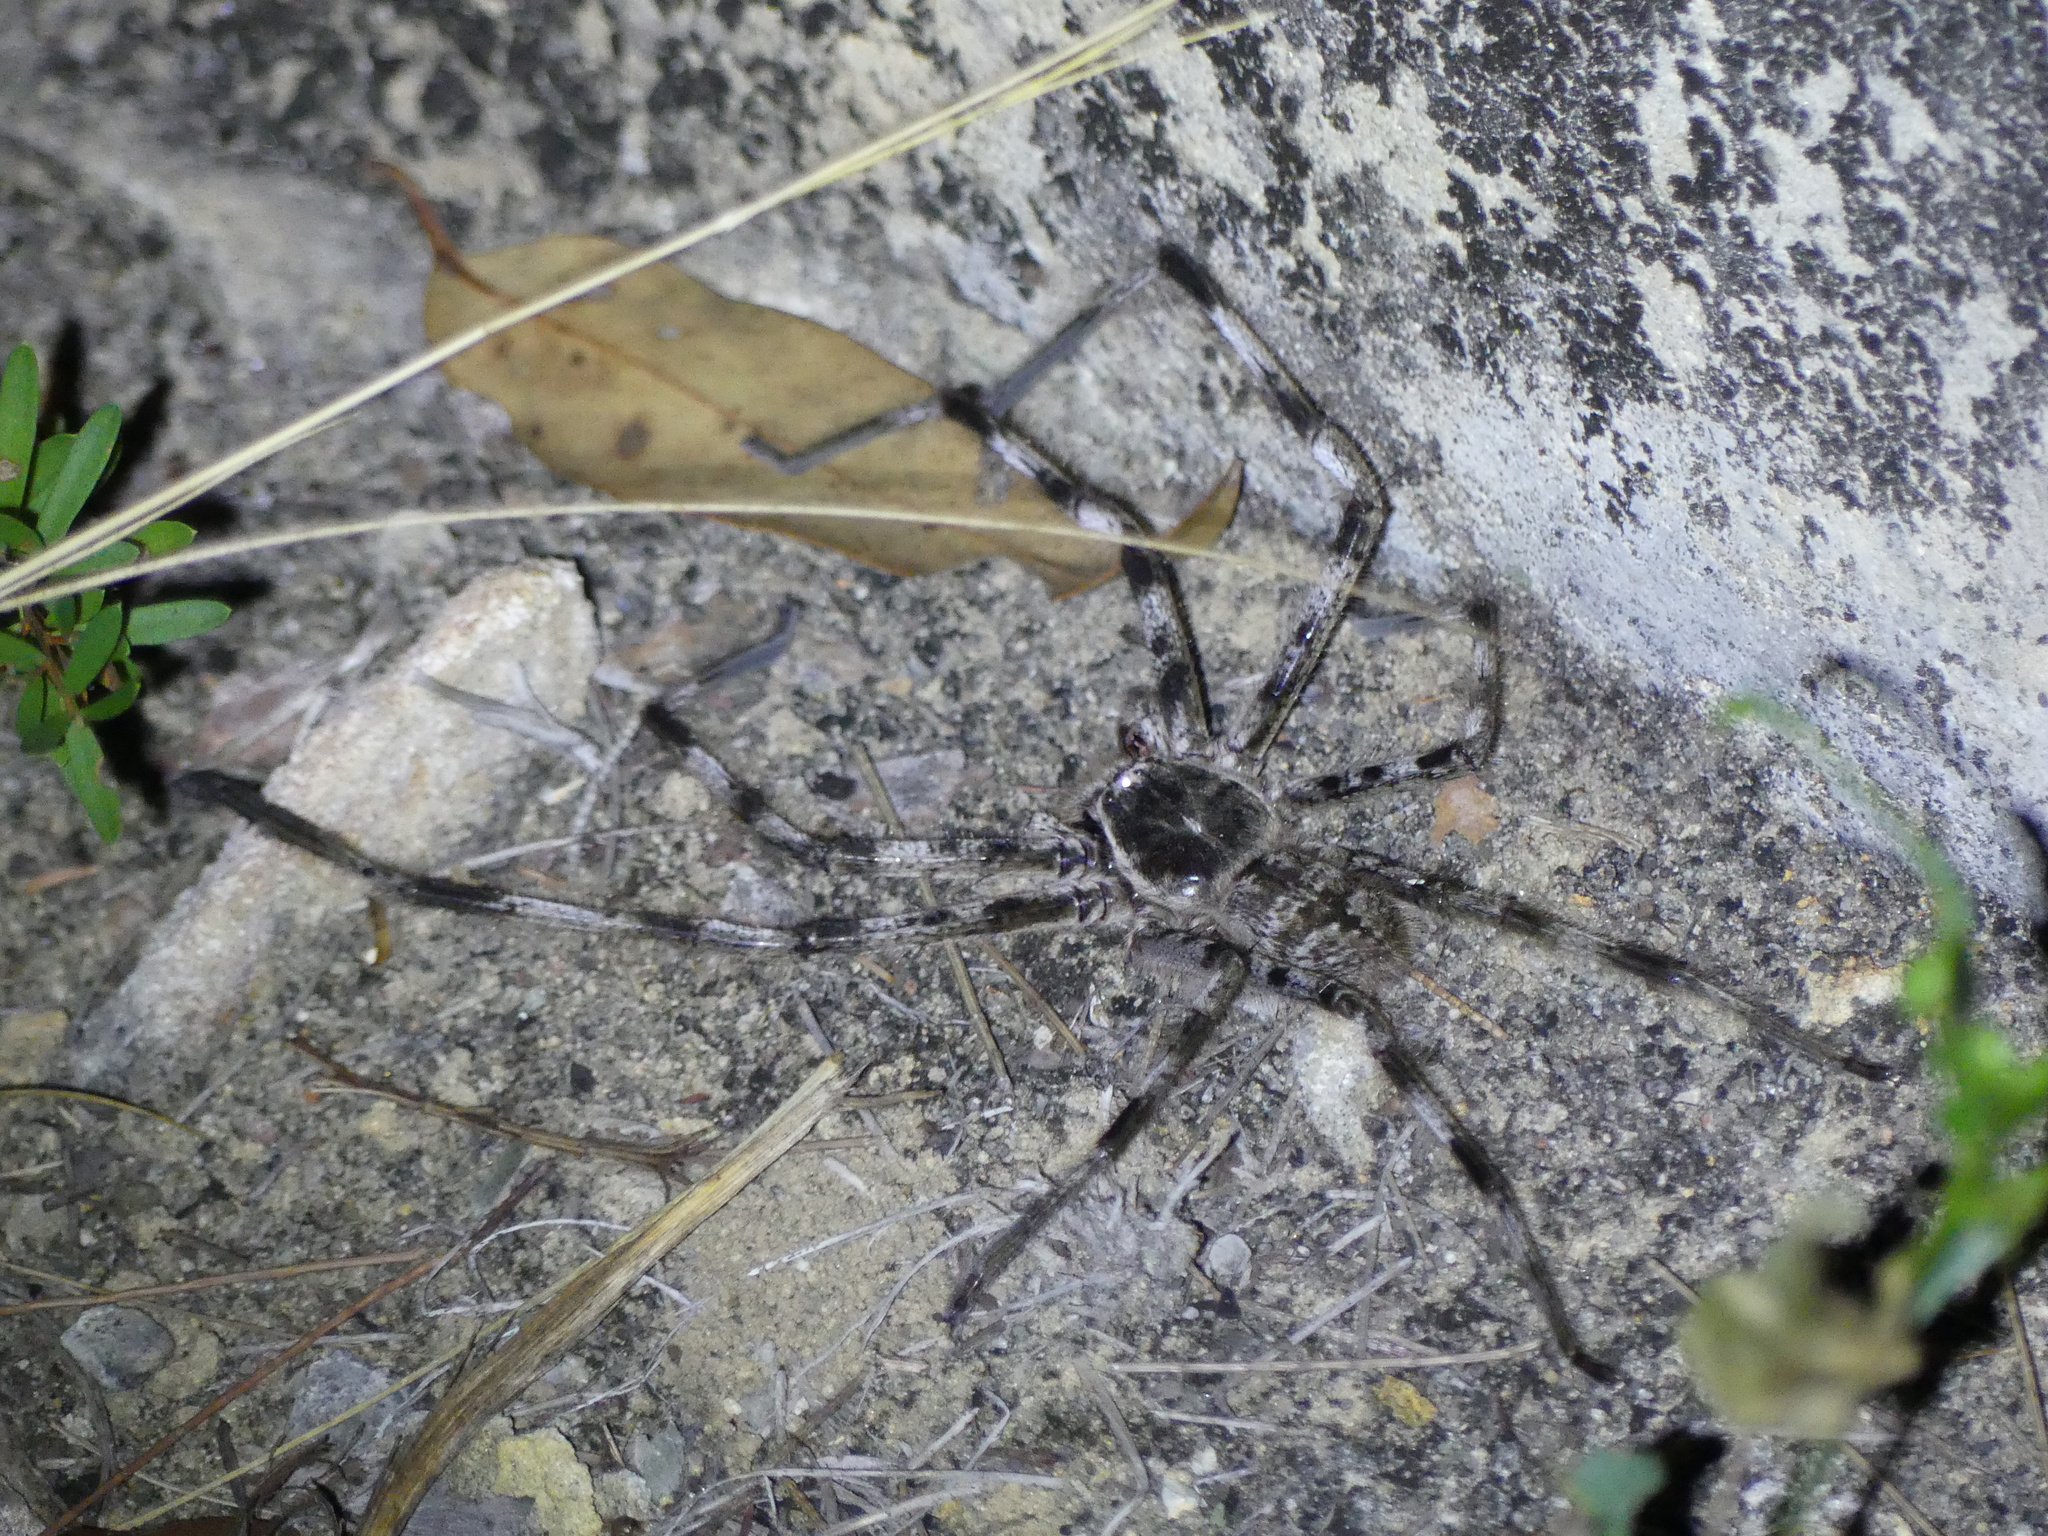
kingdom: Animalia
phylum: Arthropoda
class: Arachnida
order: Araneae
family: Sparassidae
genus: Holconia
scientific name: Holconia insignis
